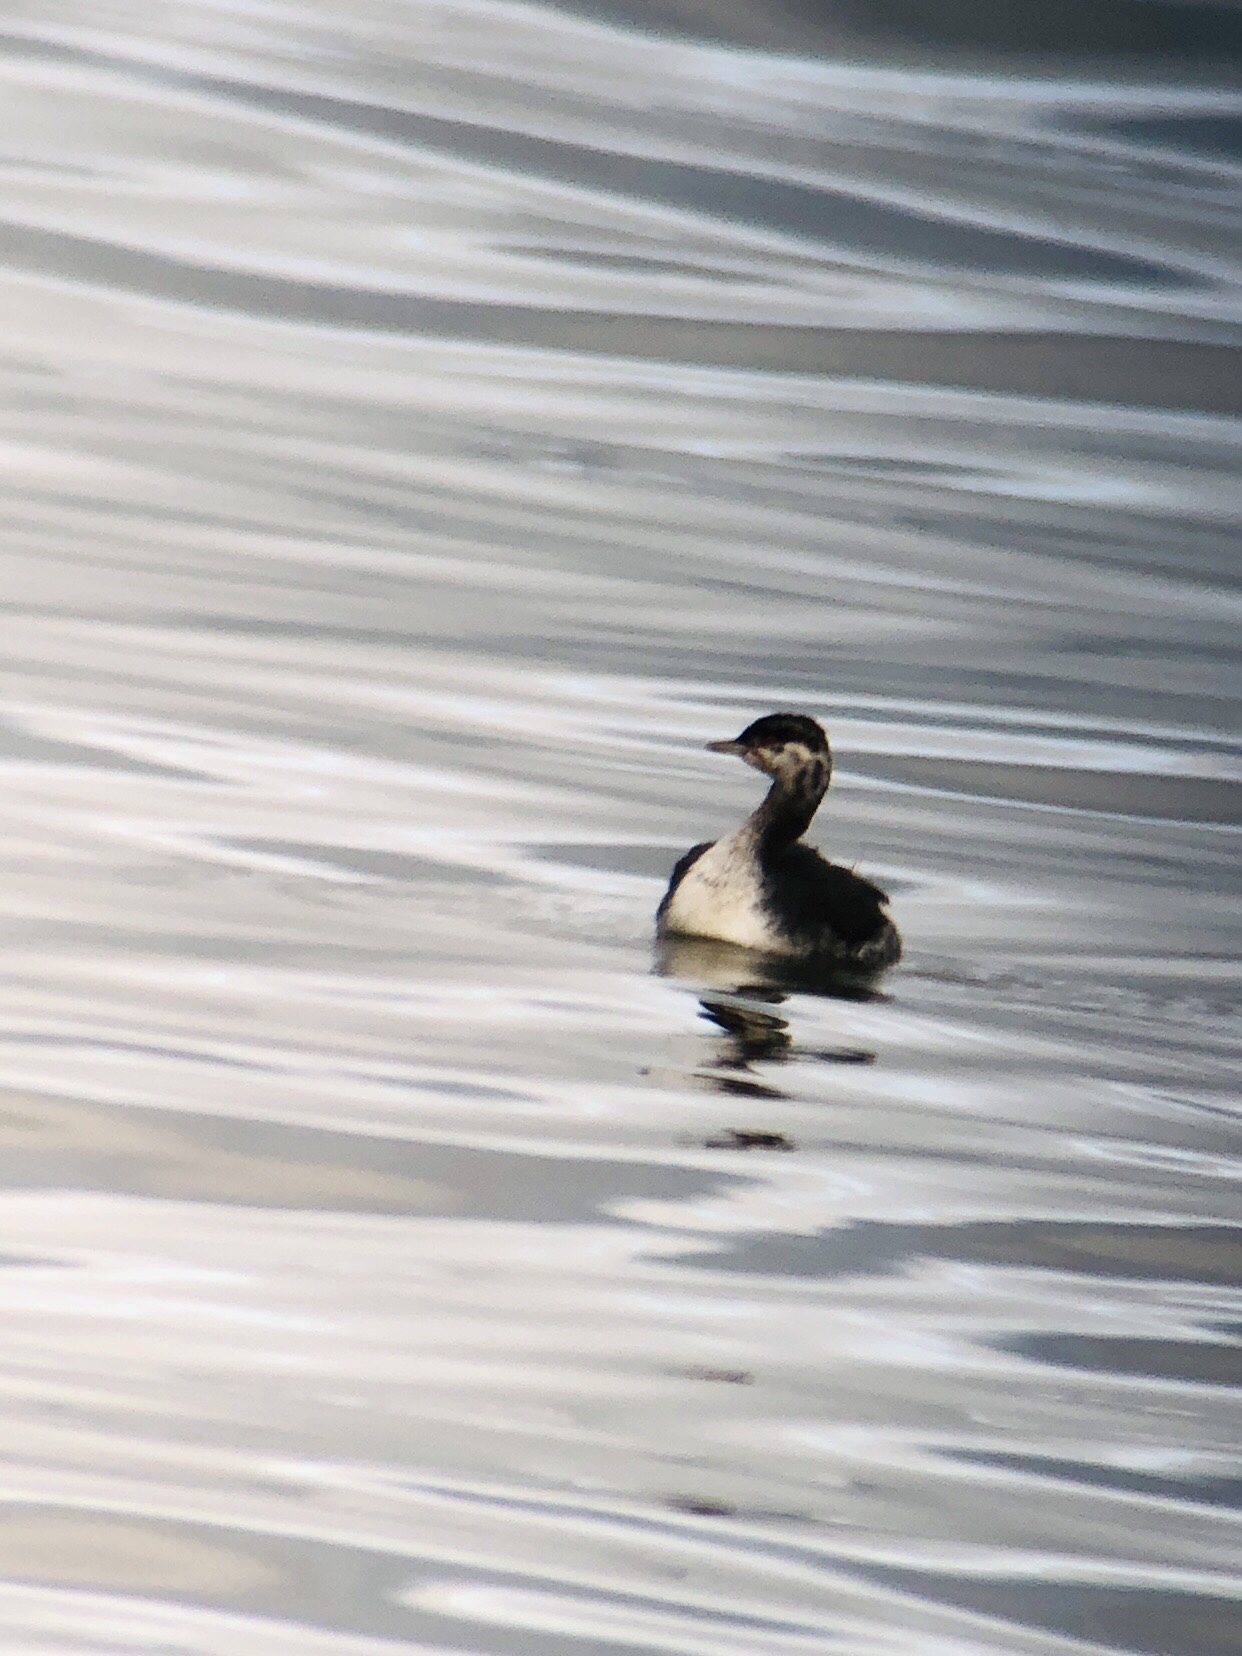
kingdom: Animalia
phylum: Chordata
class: Aves
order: Podicipediformes
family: Podicipedidae
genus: Podiceps
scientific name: Podiceps auritus
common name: Horned grebe
